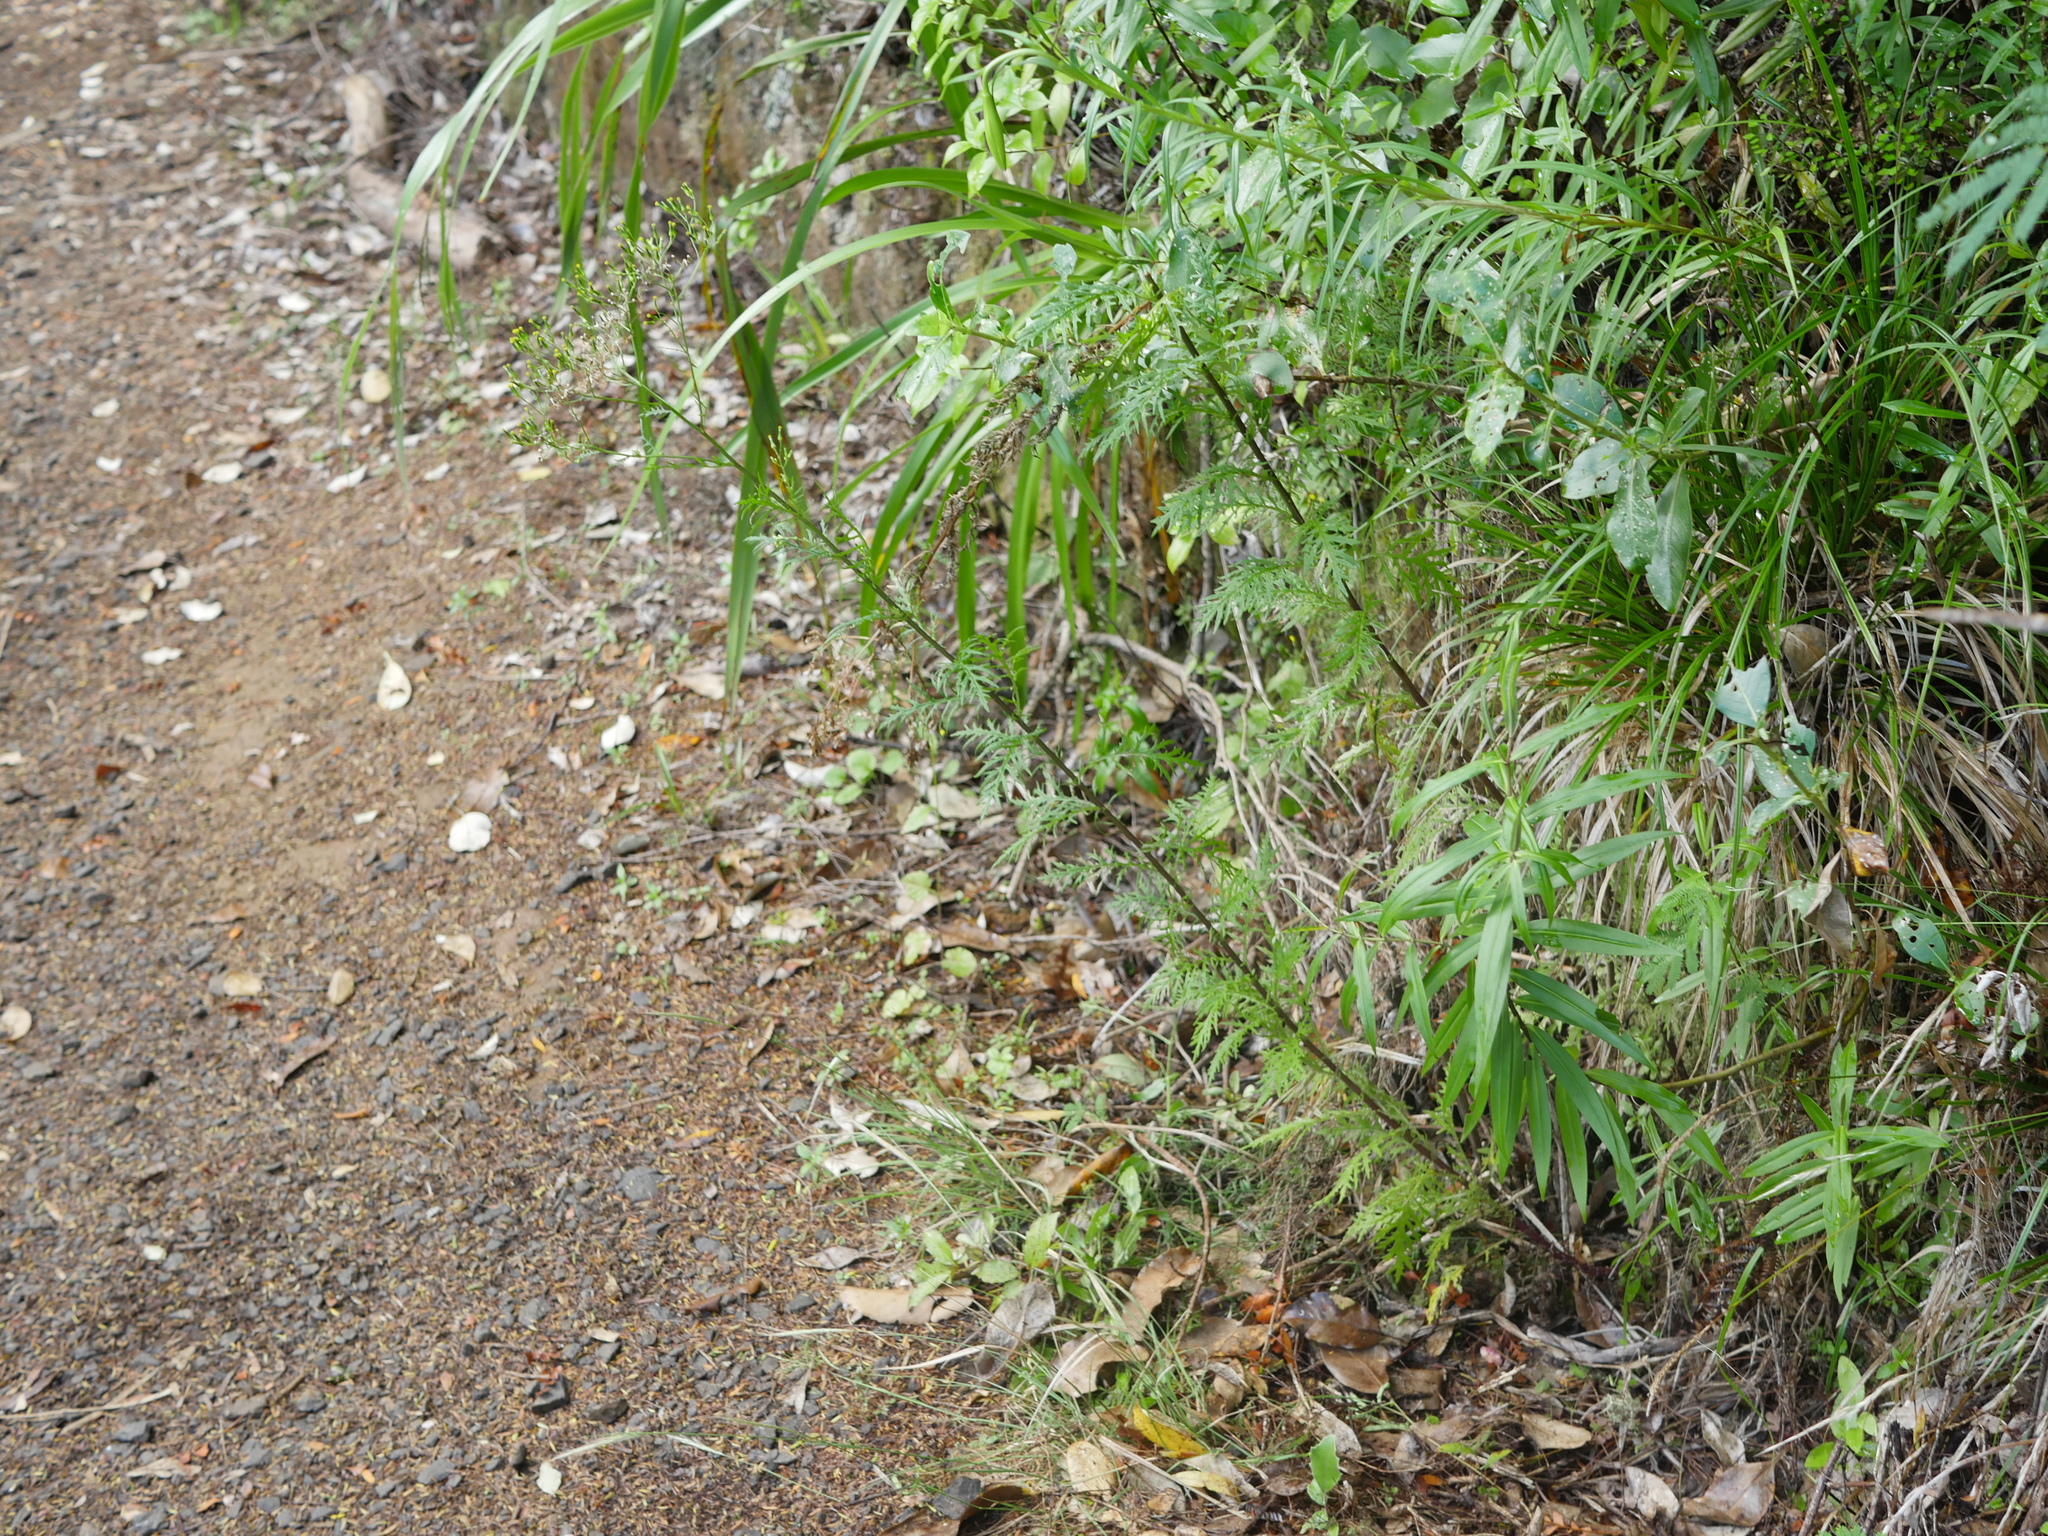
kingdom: Plantae
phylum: Tracheophyta
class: Magnoliopsida
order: Asterales
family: Asteraceae
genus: Senecio
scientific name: Senecio bipinnatisectus
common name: Australian fireweed
